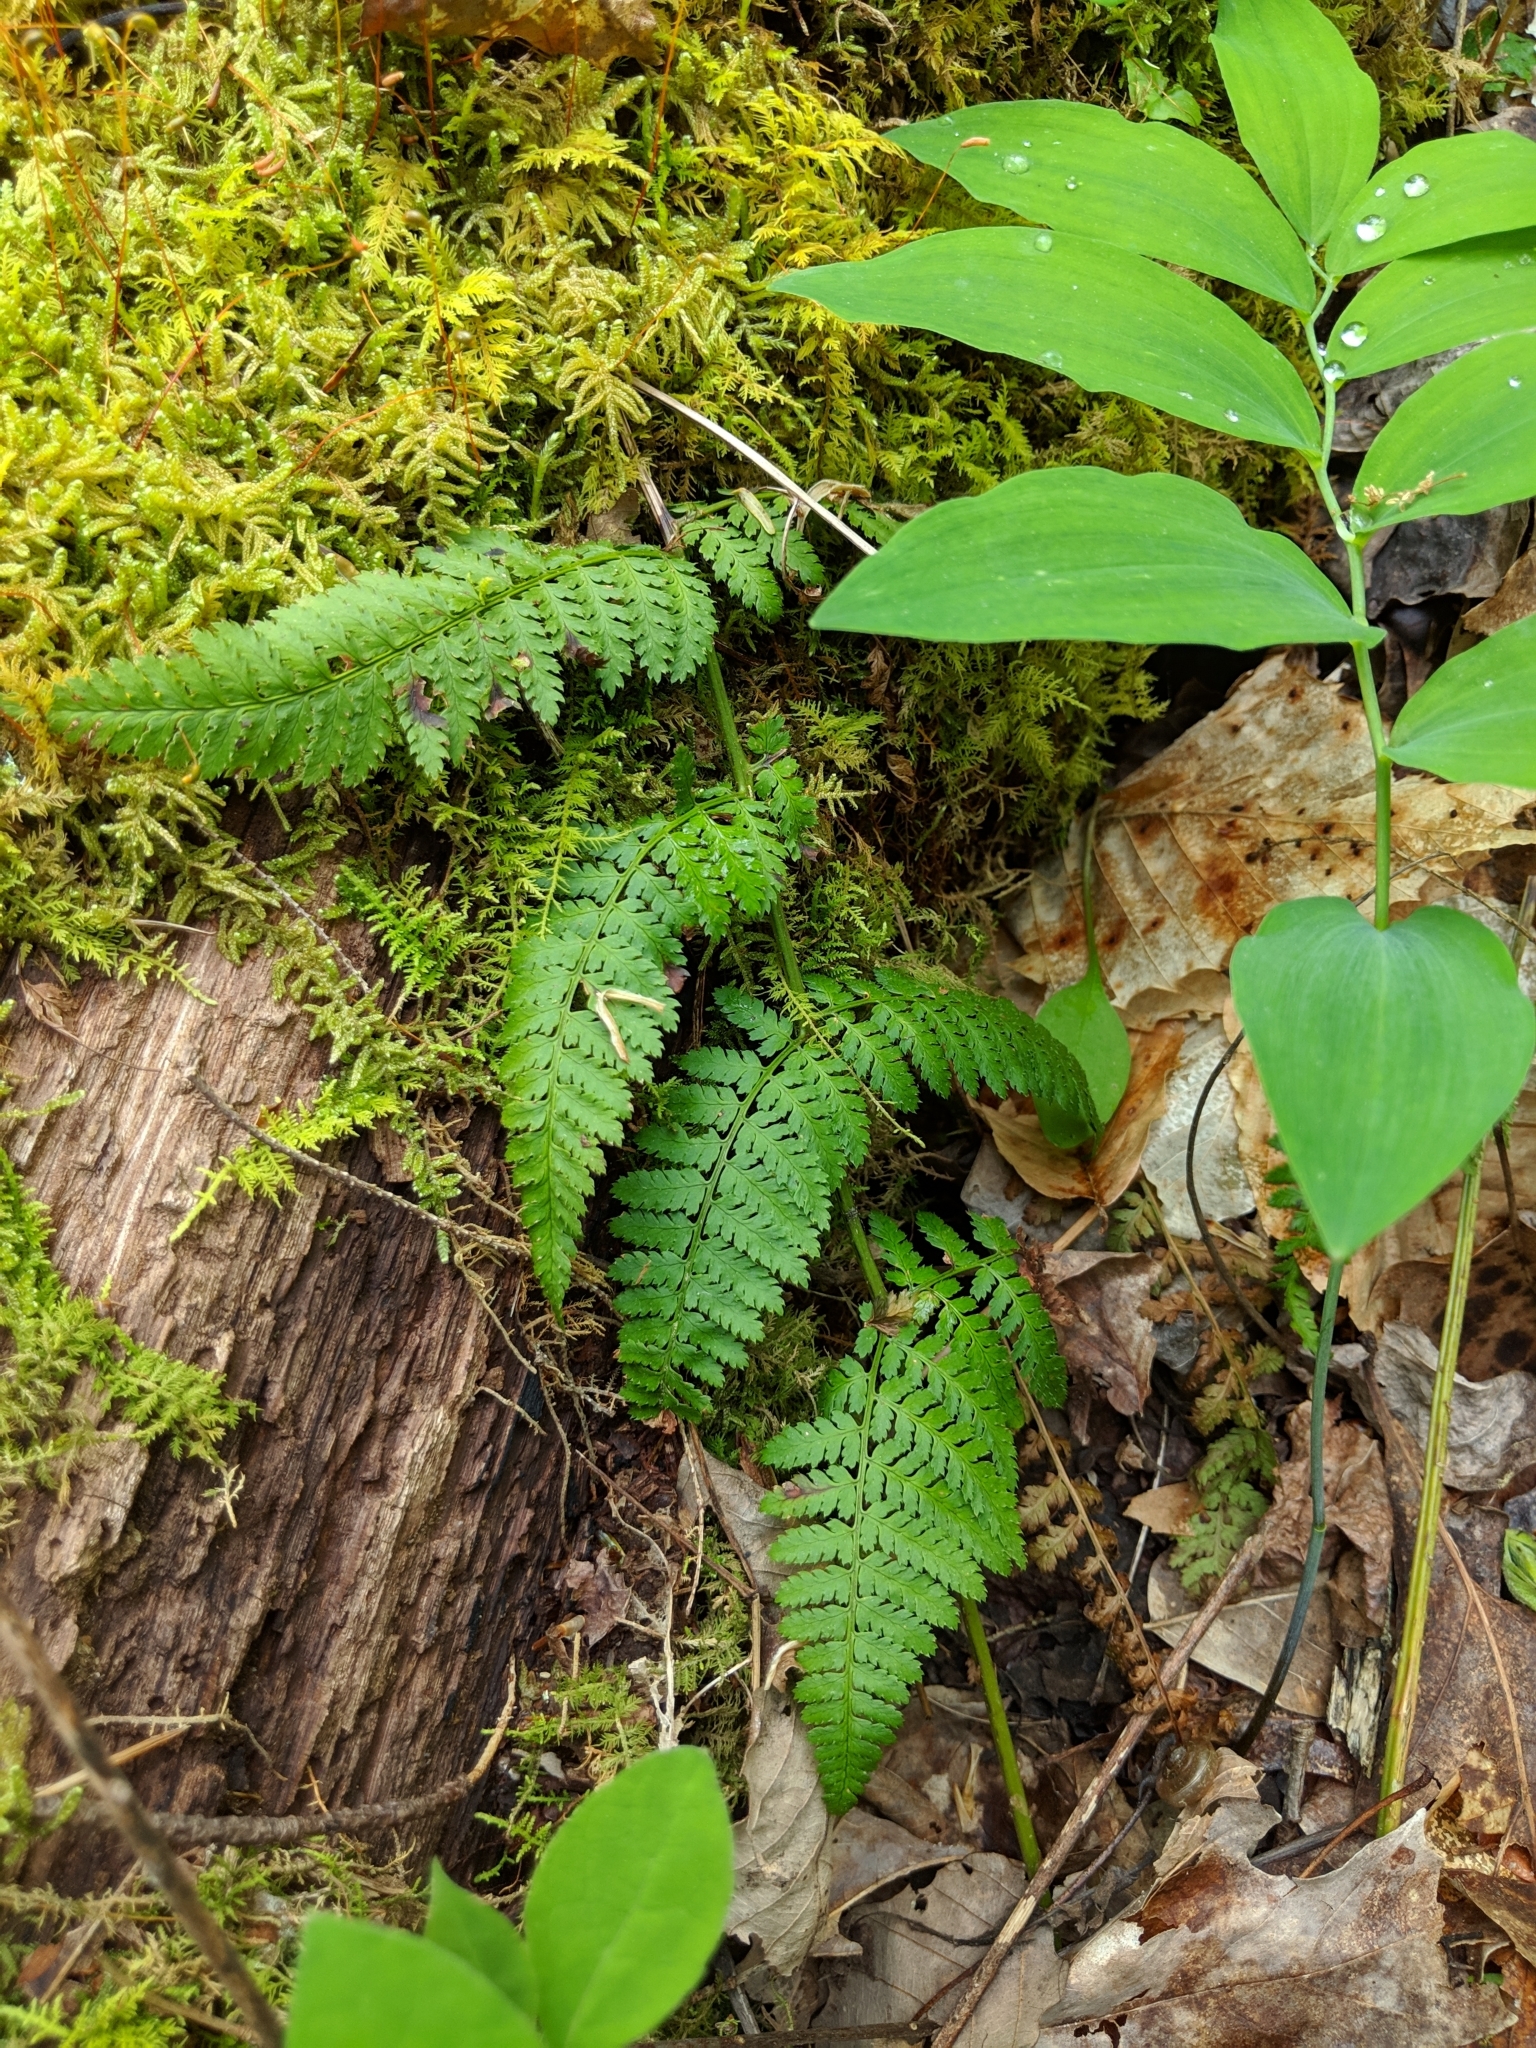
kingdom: Plantae
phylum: Tracheophyta
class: Polypodiopsida
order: Polypodiales
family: Dryopteridaceae
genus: Dryopteris
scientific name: Dryopteris intermedia
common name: Evergreen wood fern
